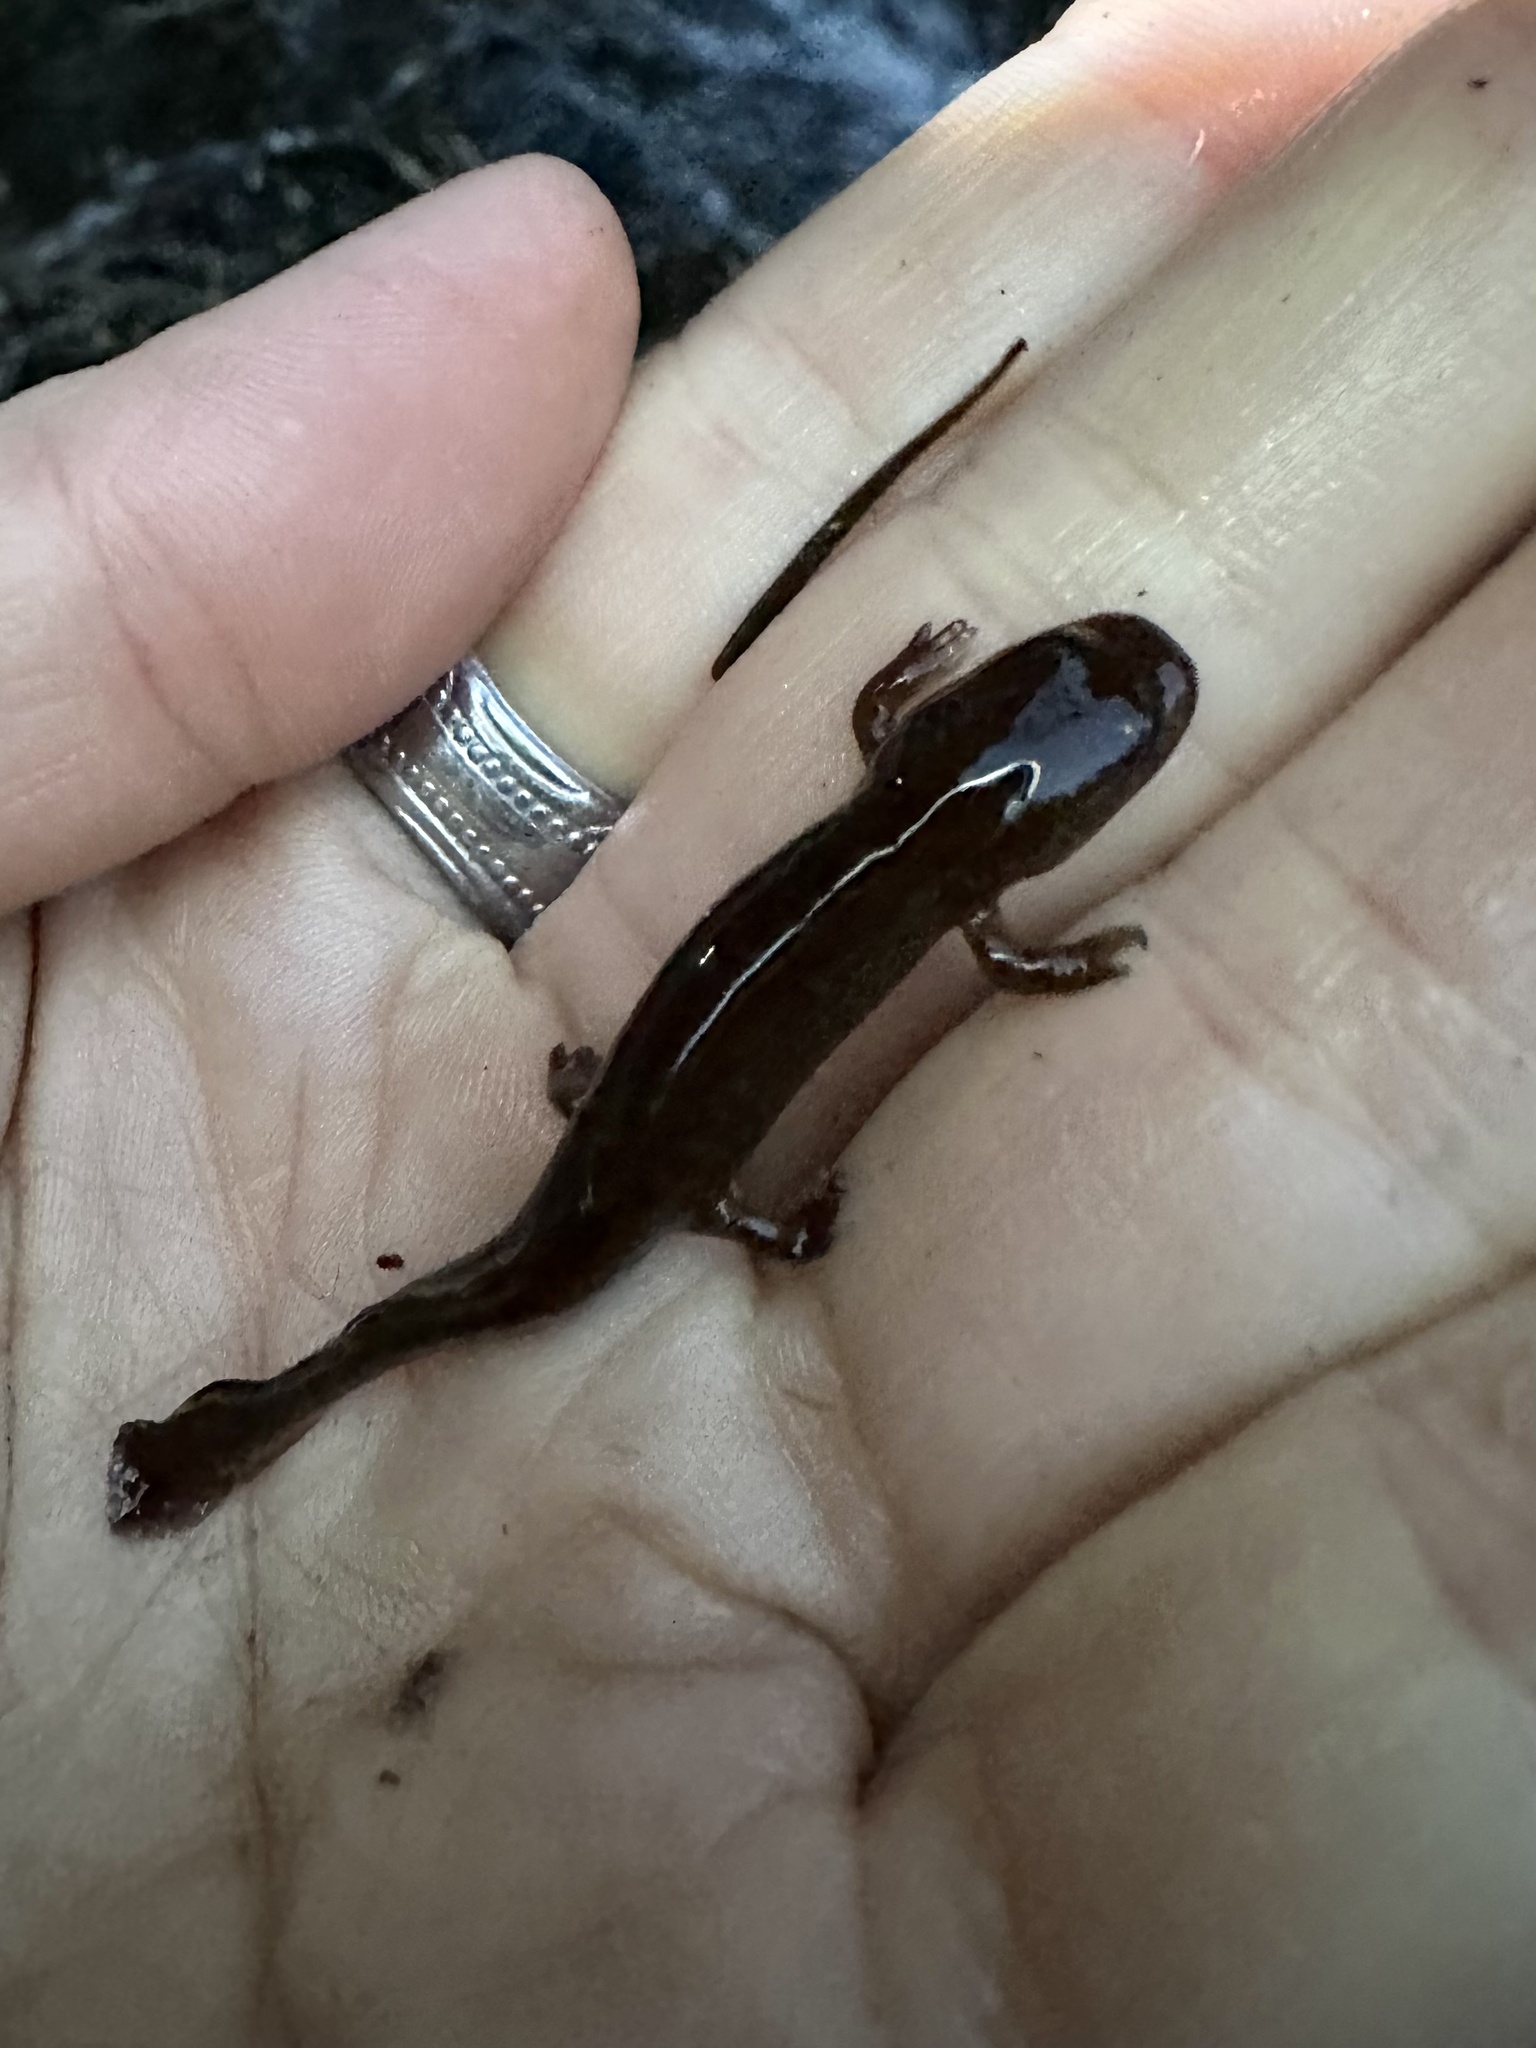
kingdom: Animalia
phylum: Chordata
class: Amphibia
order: Caudata
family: Ambystomatidae
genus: Dicamptodon
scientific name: Dicamptodon tenebrosus
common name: Coastal giant salamander
